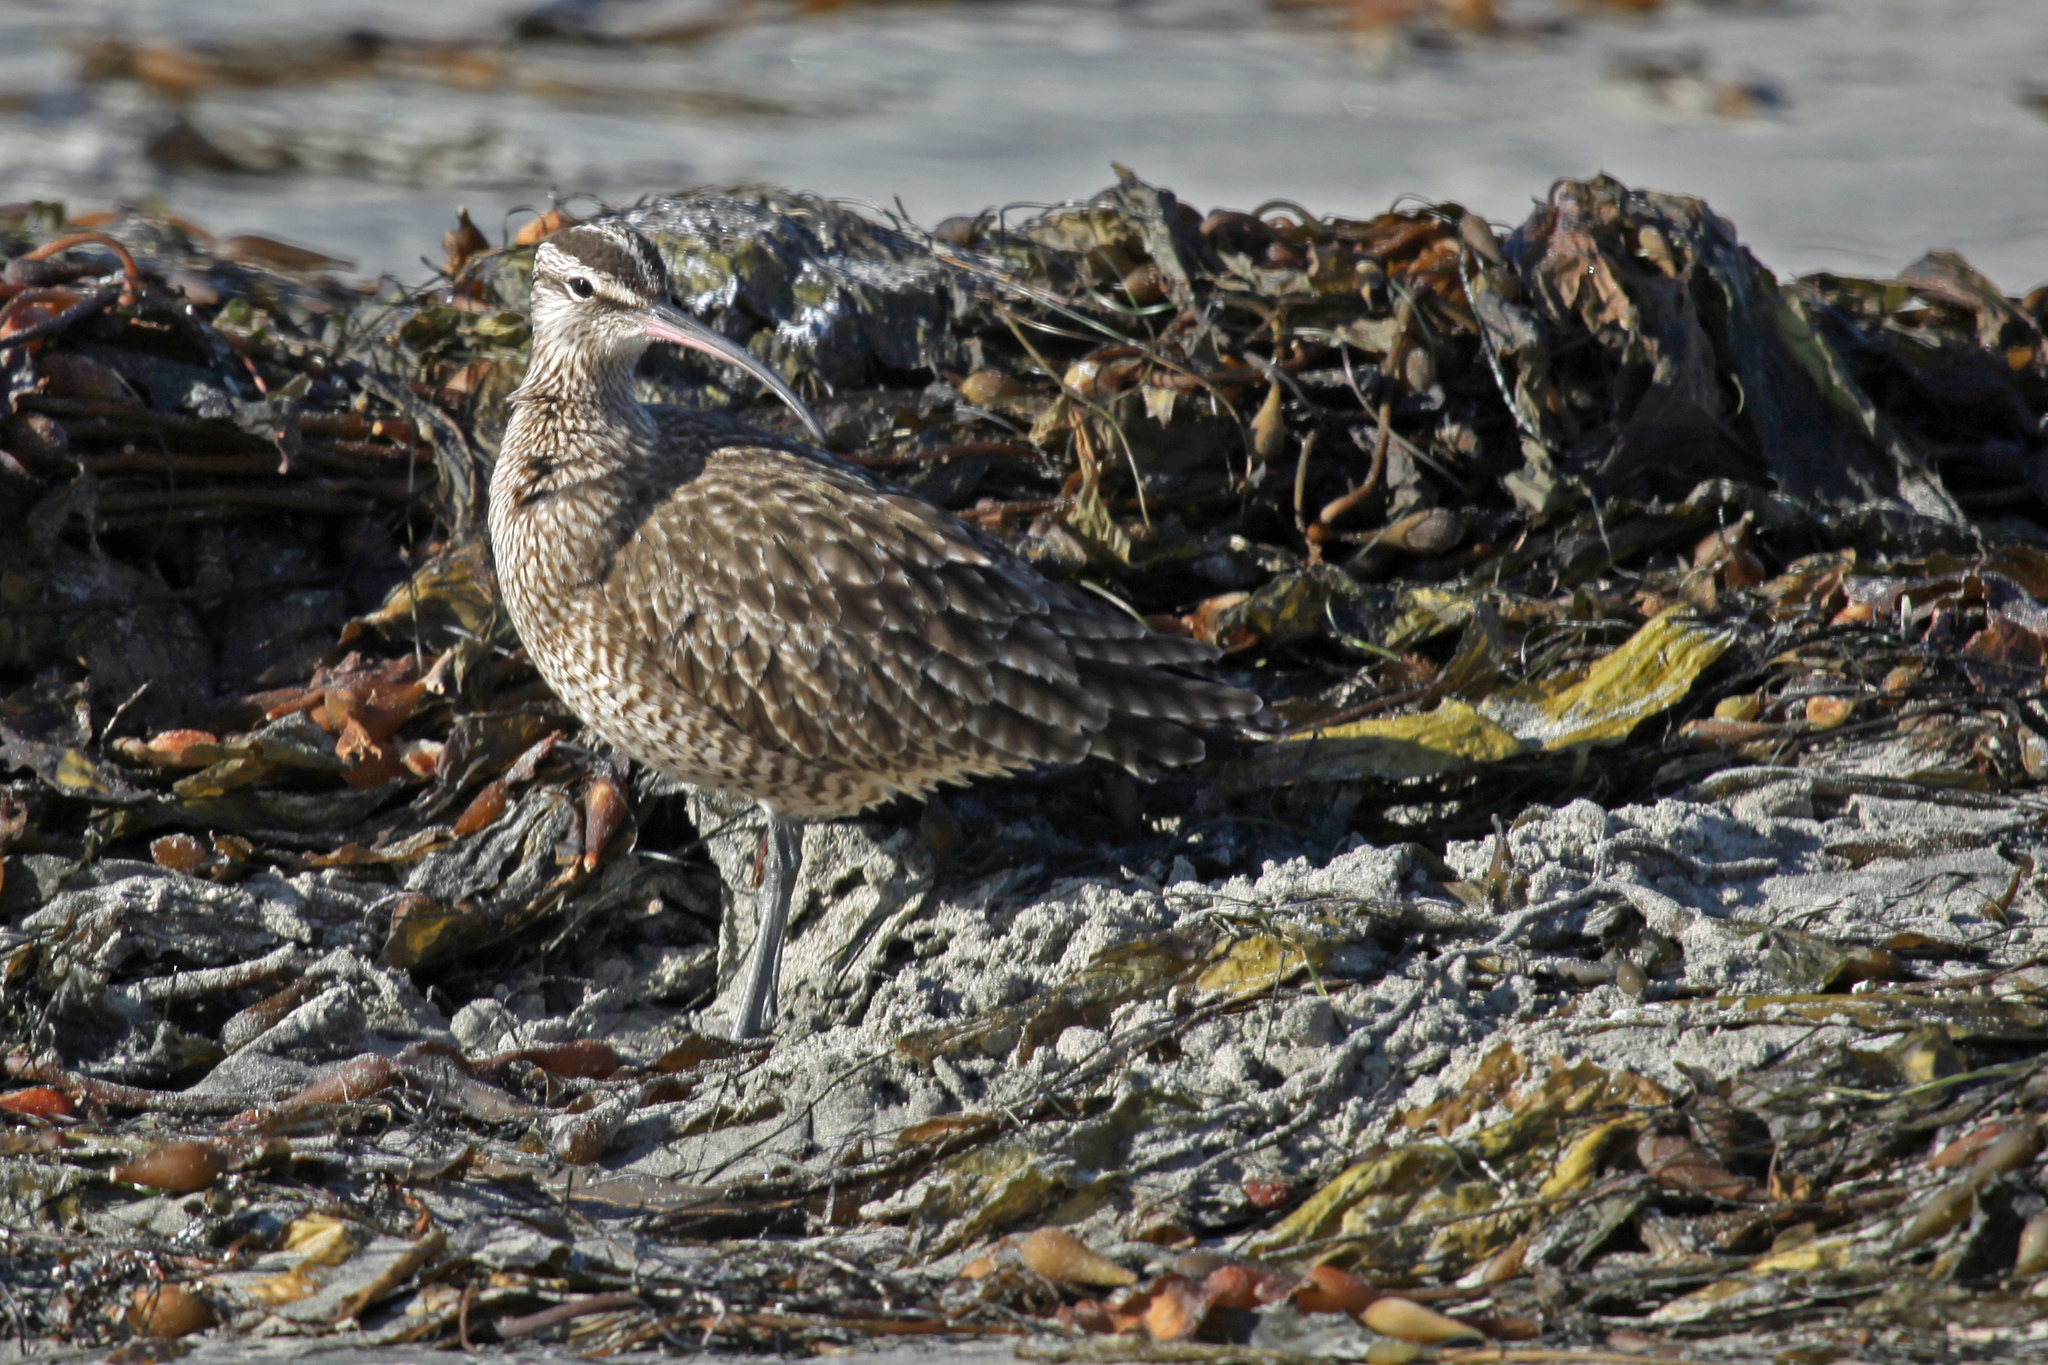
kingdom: Animalia
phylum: Chordata
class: Aves
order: Charadriiformes
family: Scolopacidae
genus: Numenius
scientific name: Numenius phaeopus
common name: Whimbrel
